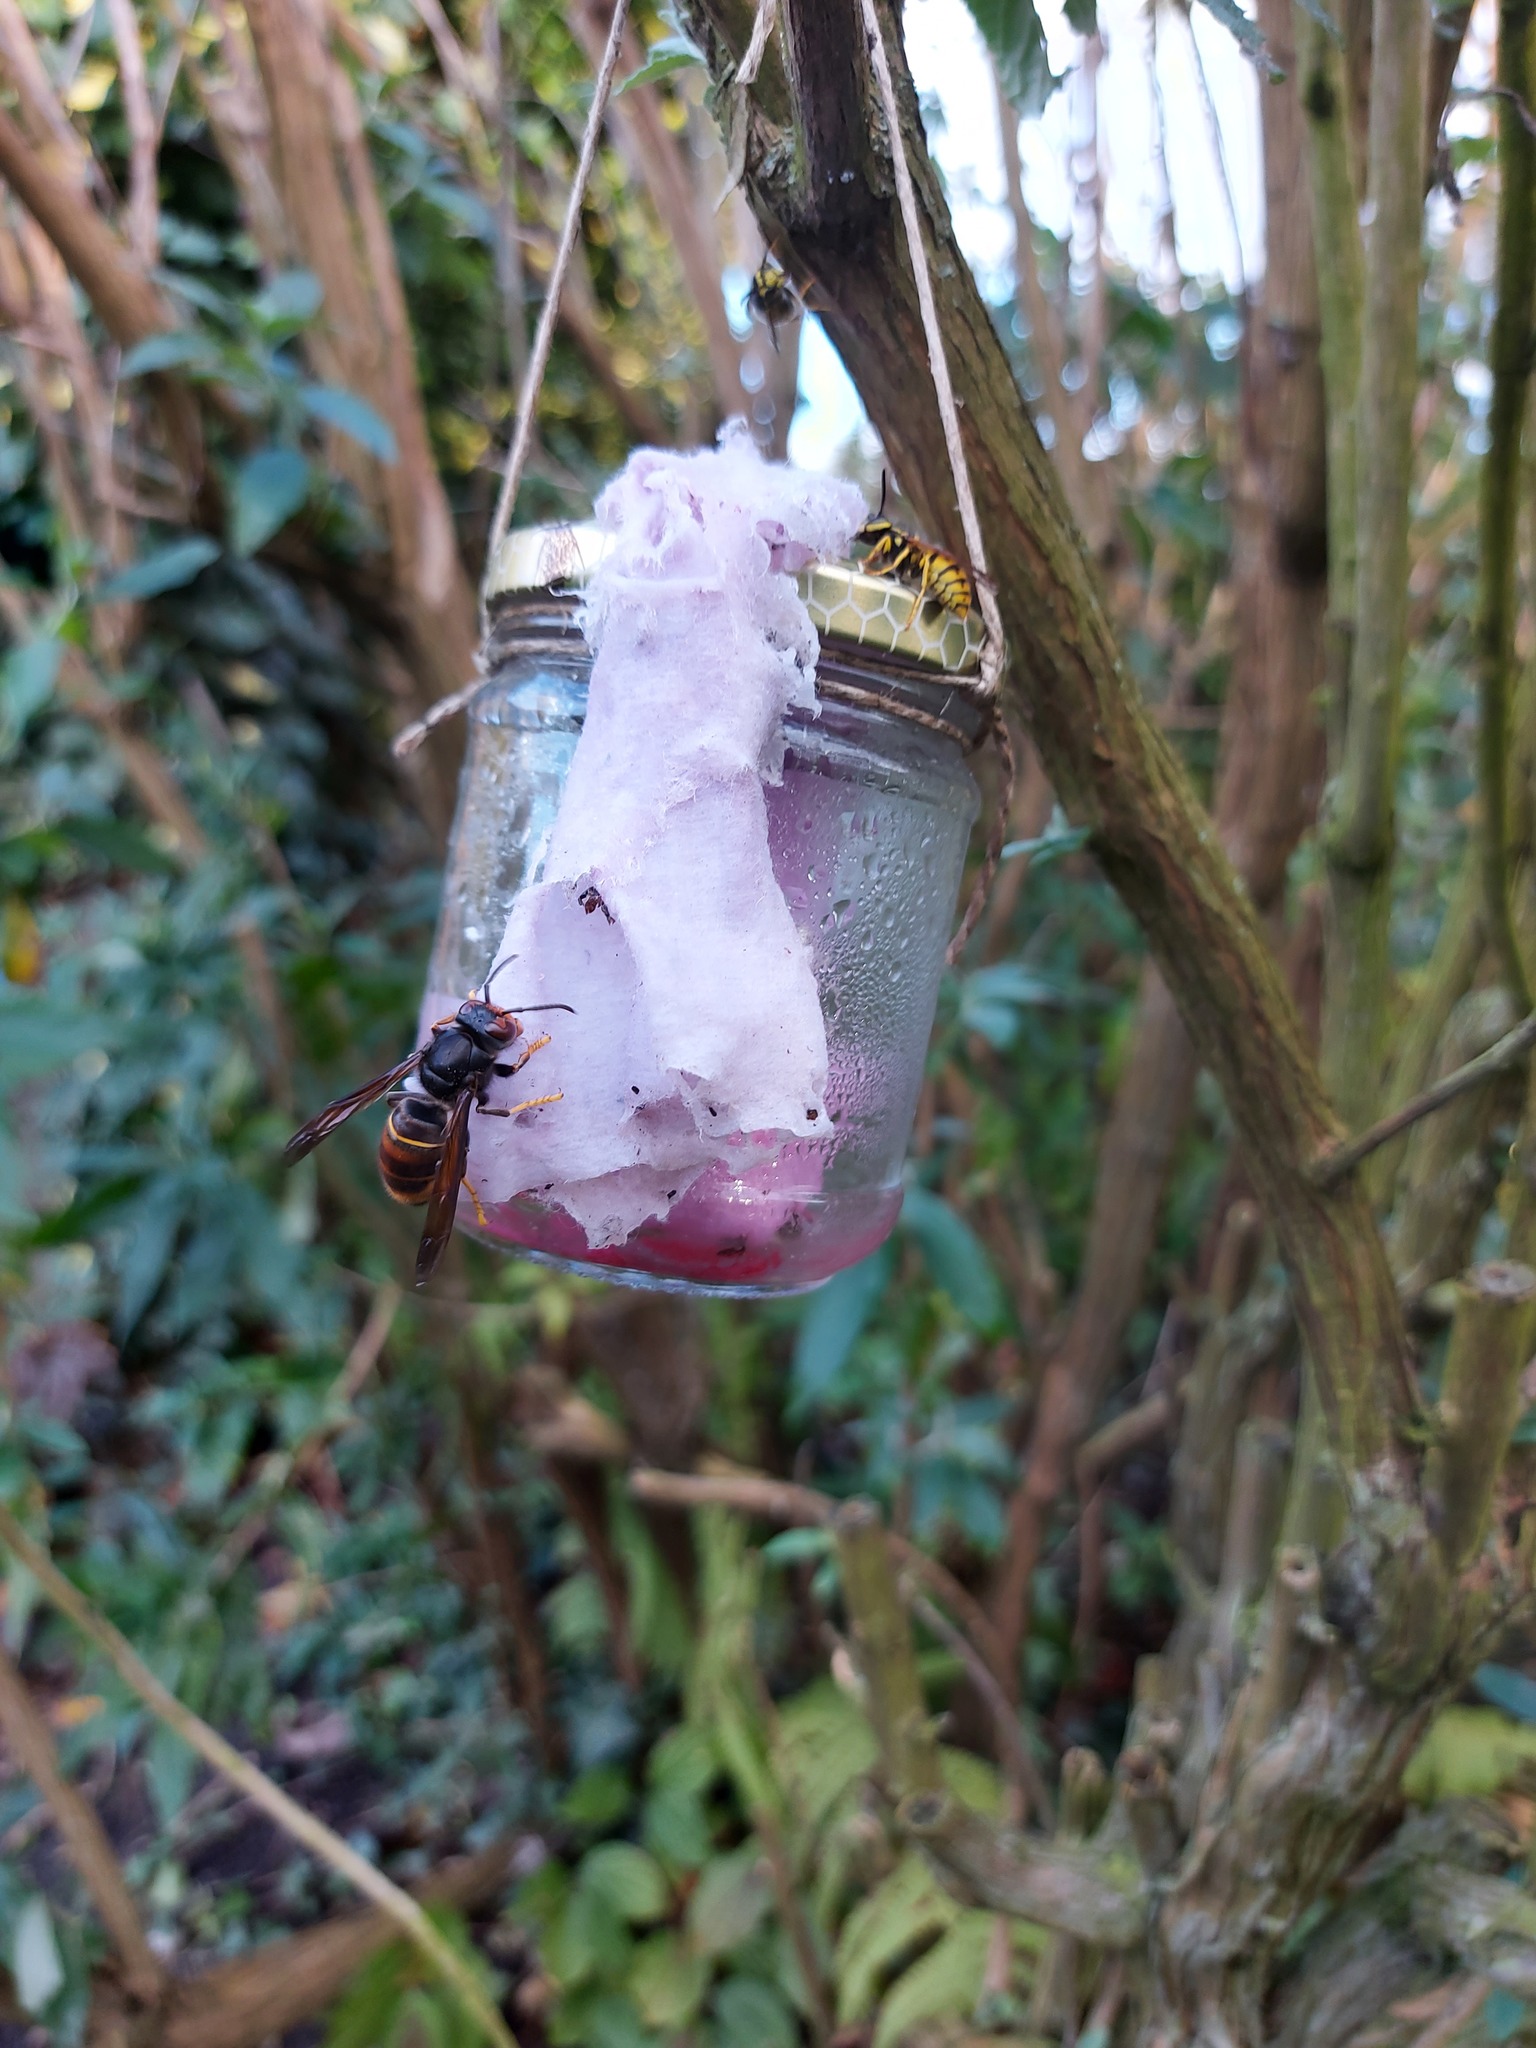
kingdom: Animalia
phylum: Arthropoda
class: Insecta
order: Hymenoptera
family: Vespidae
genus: Vespa
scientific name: Vespa velutina
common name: Asian hornet
